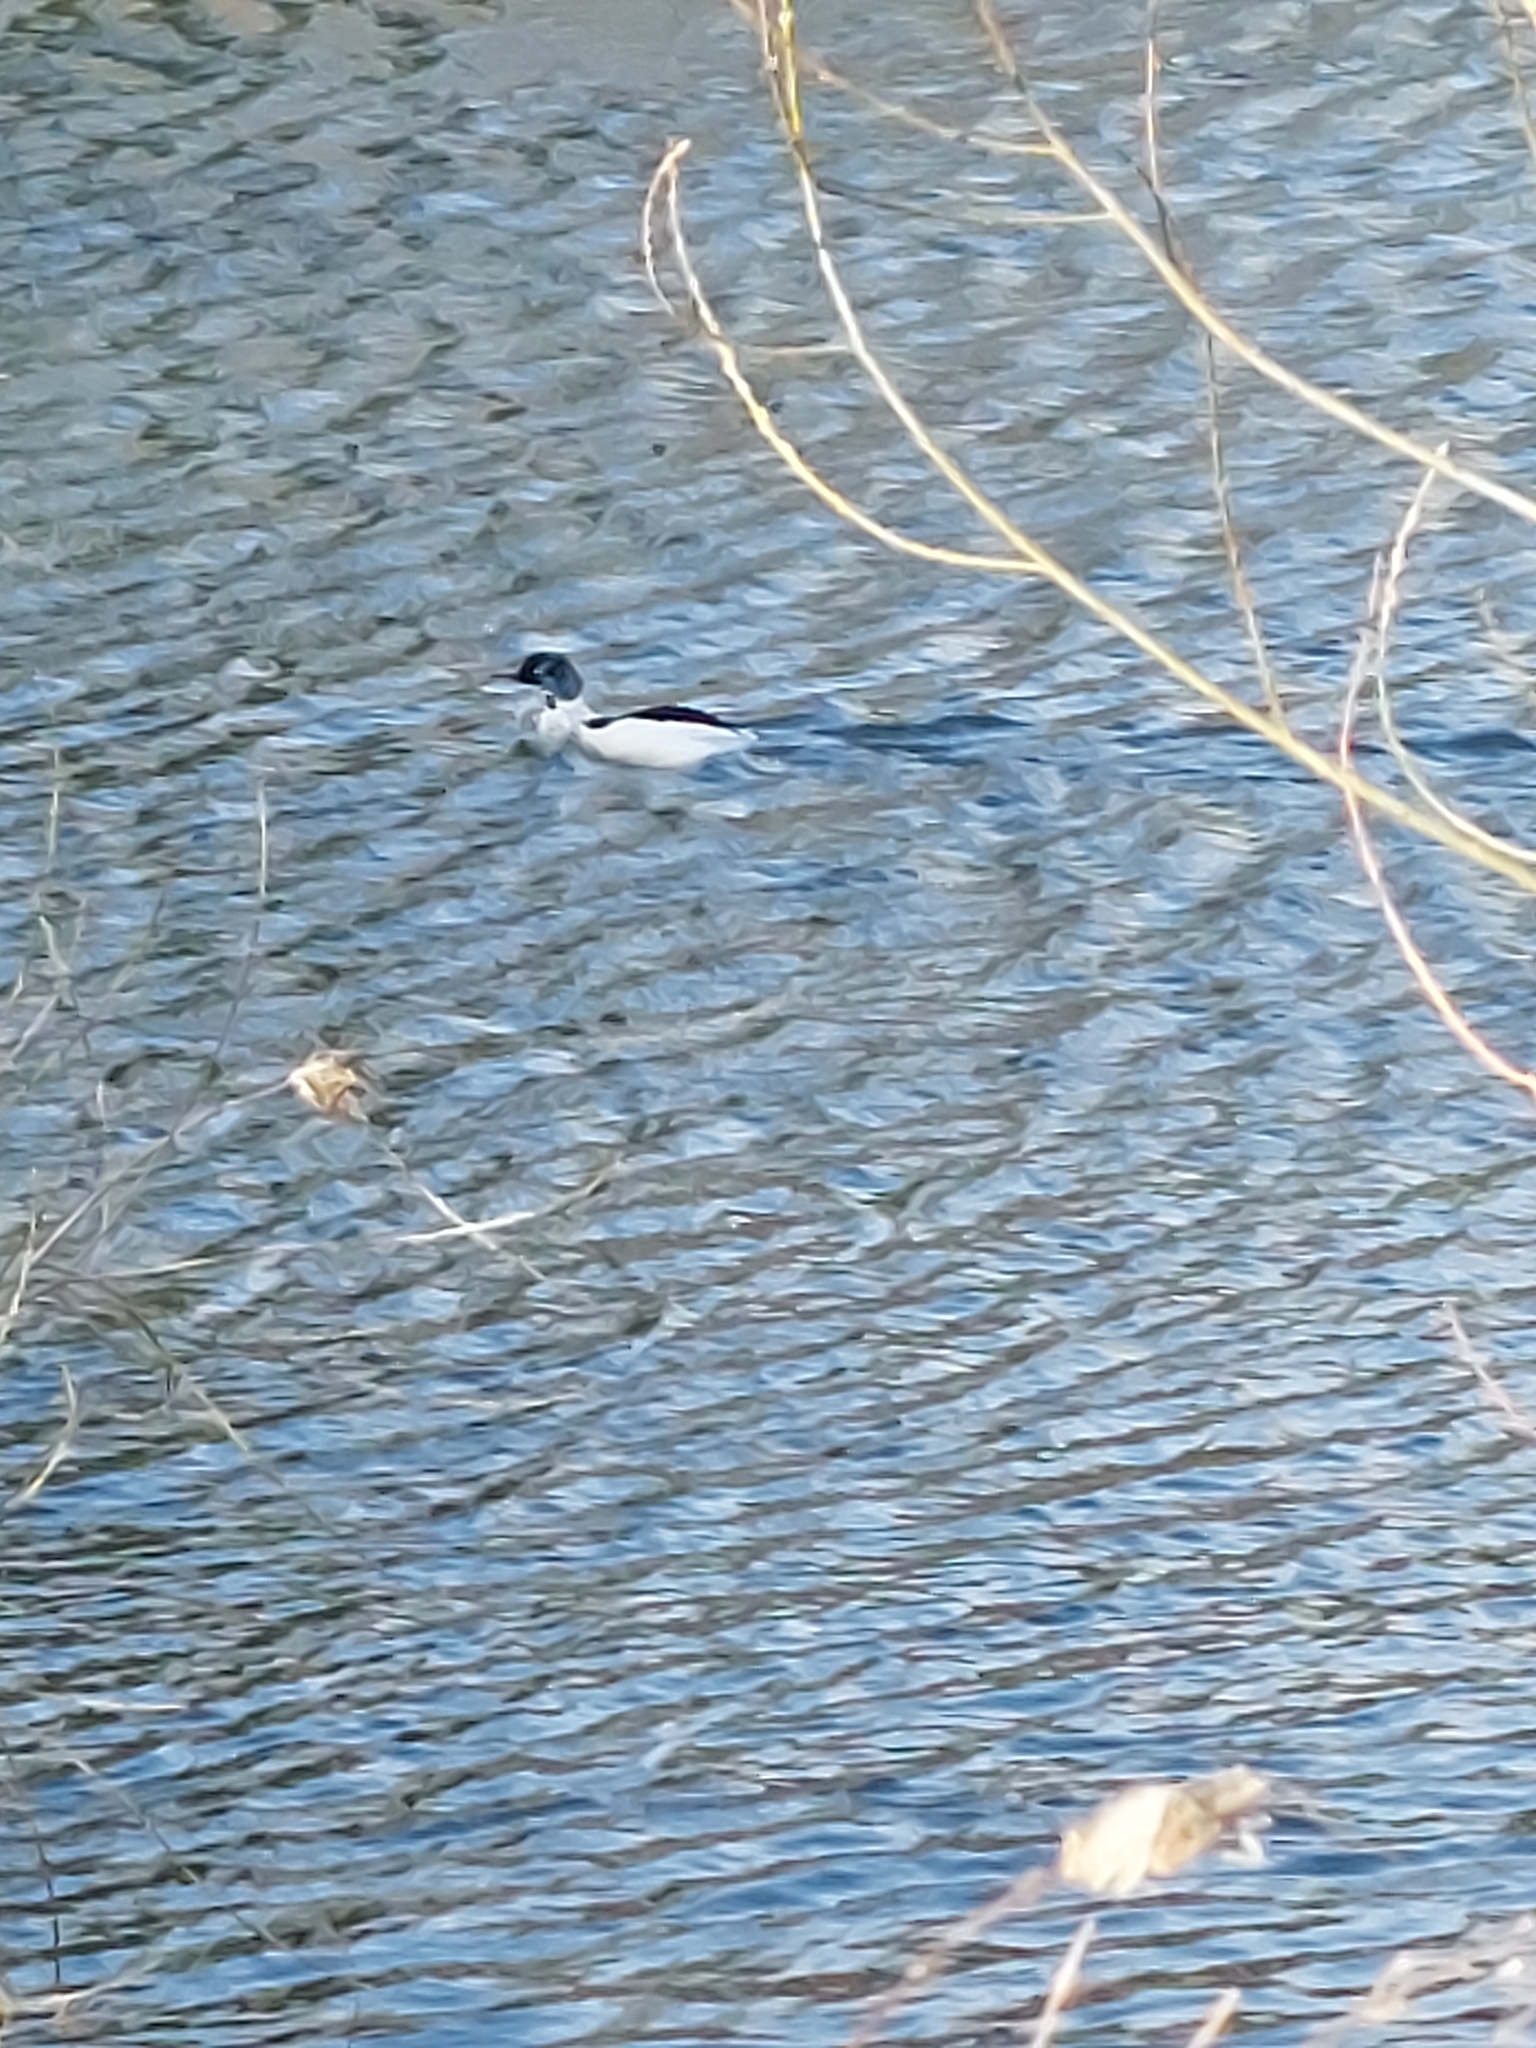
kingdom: Animalia
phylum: Chordata
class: Aves
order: Anseriformes
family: Anatidae
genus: Mergus
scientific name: Mergus merganser
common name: Common merganser
